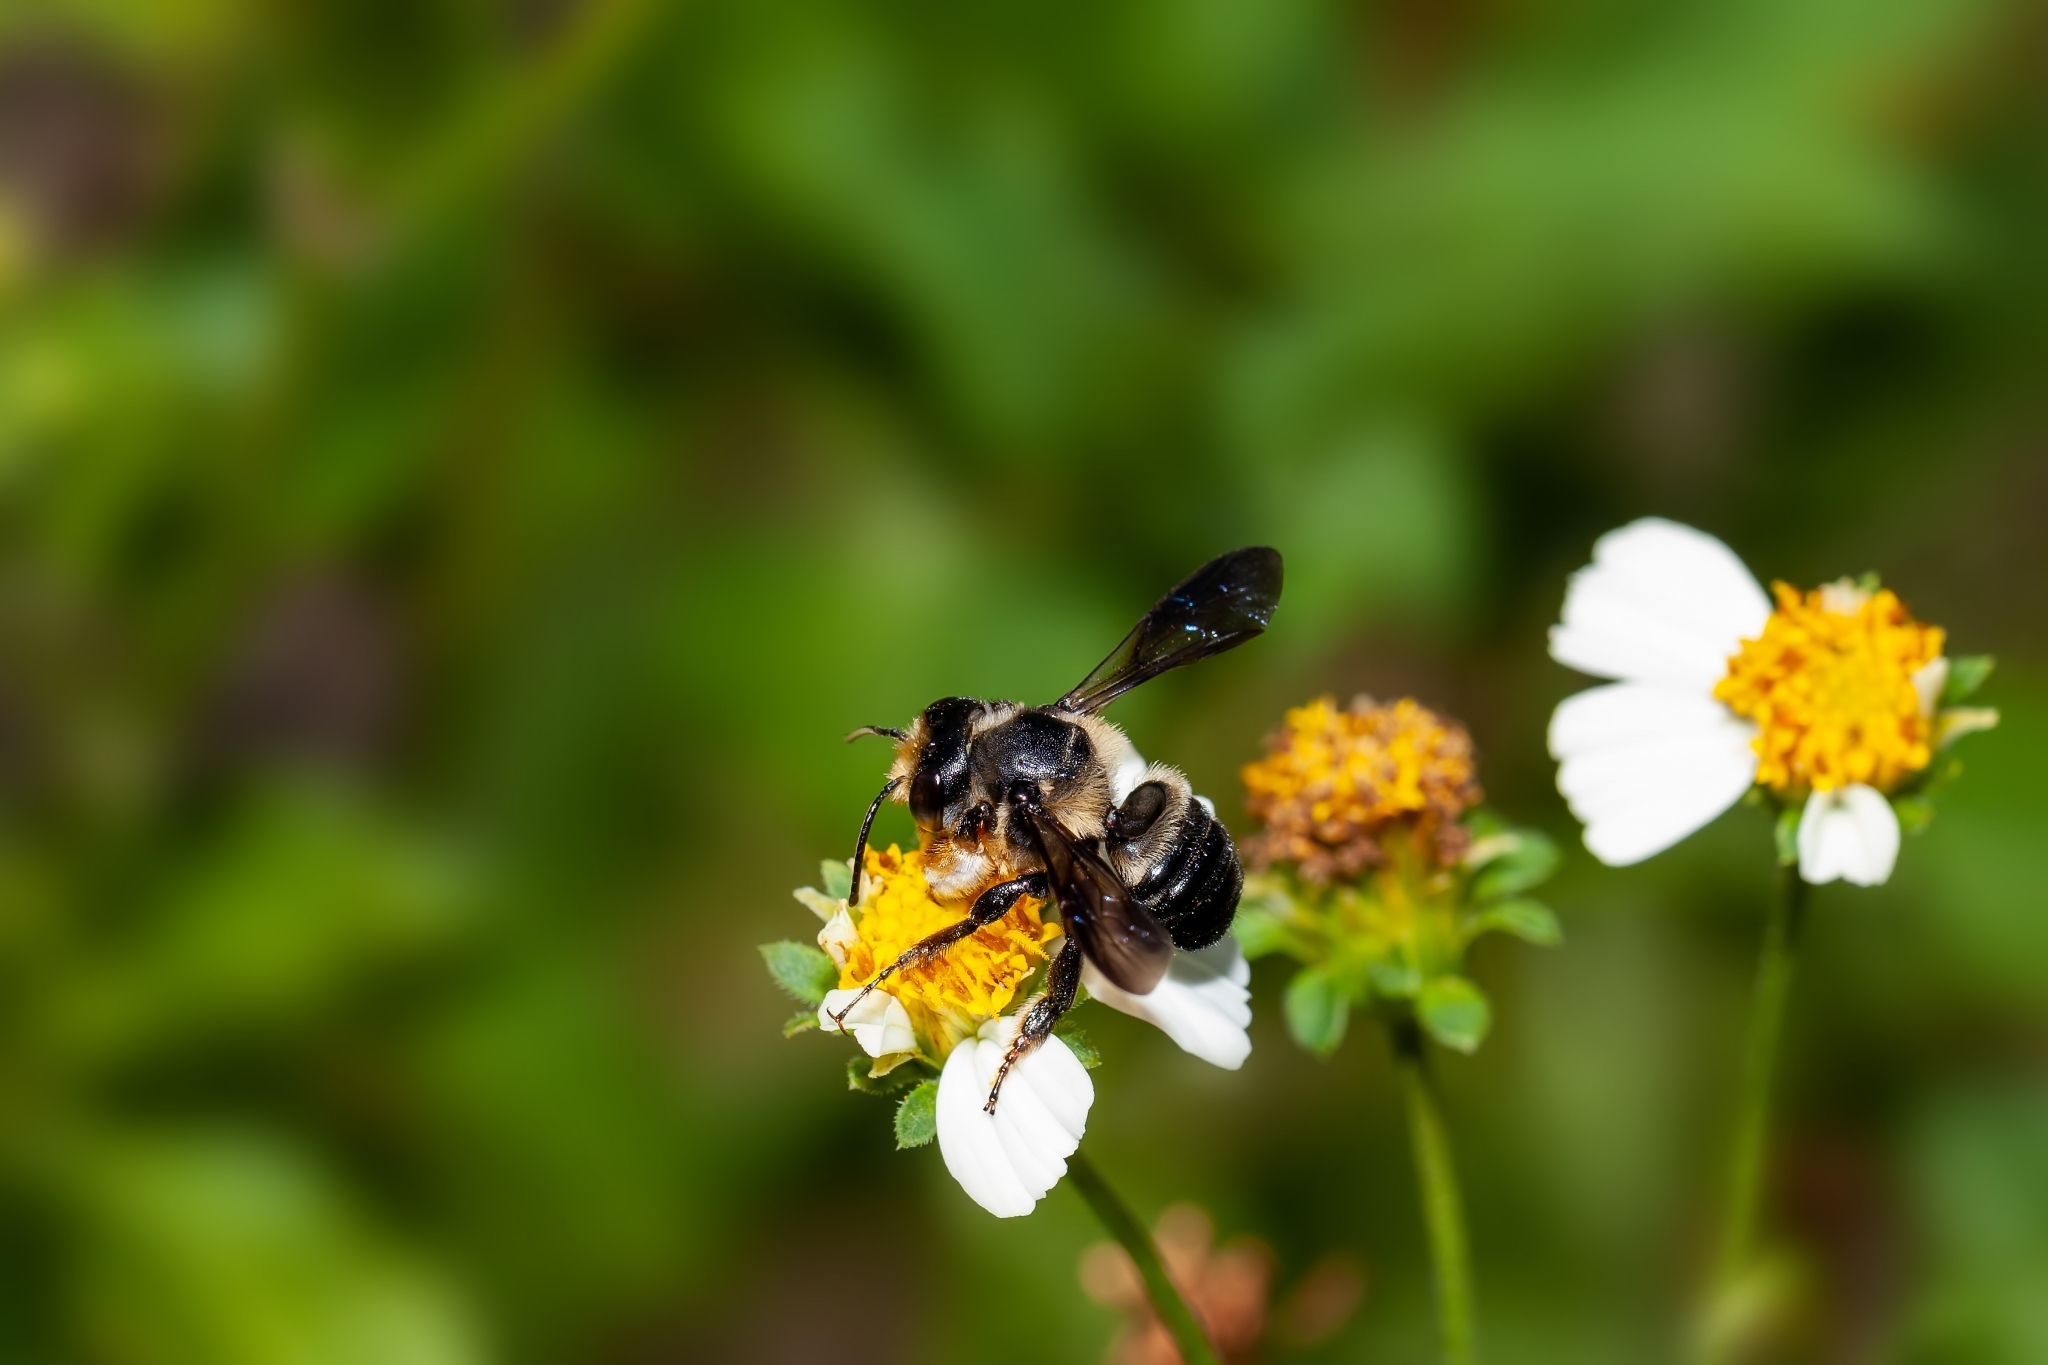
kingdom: Animalia
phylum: Arthropoda
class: Insecta
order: Hymenoptera
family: Megachilidae
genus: Megachile
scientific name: Megachile xylocopoides
